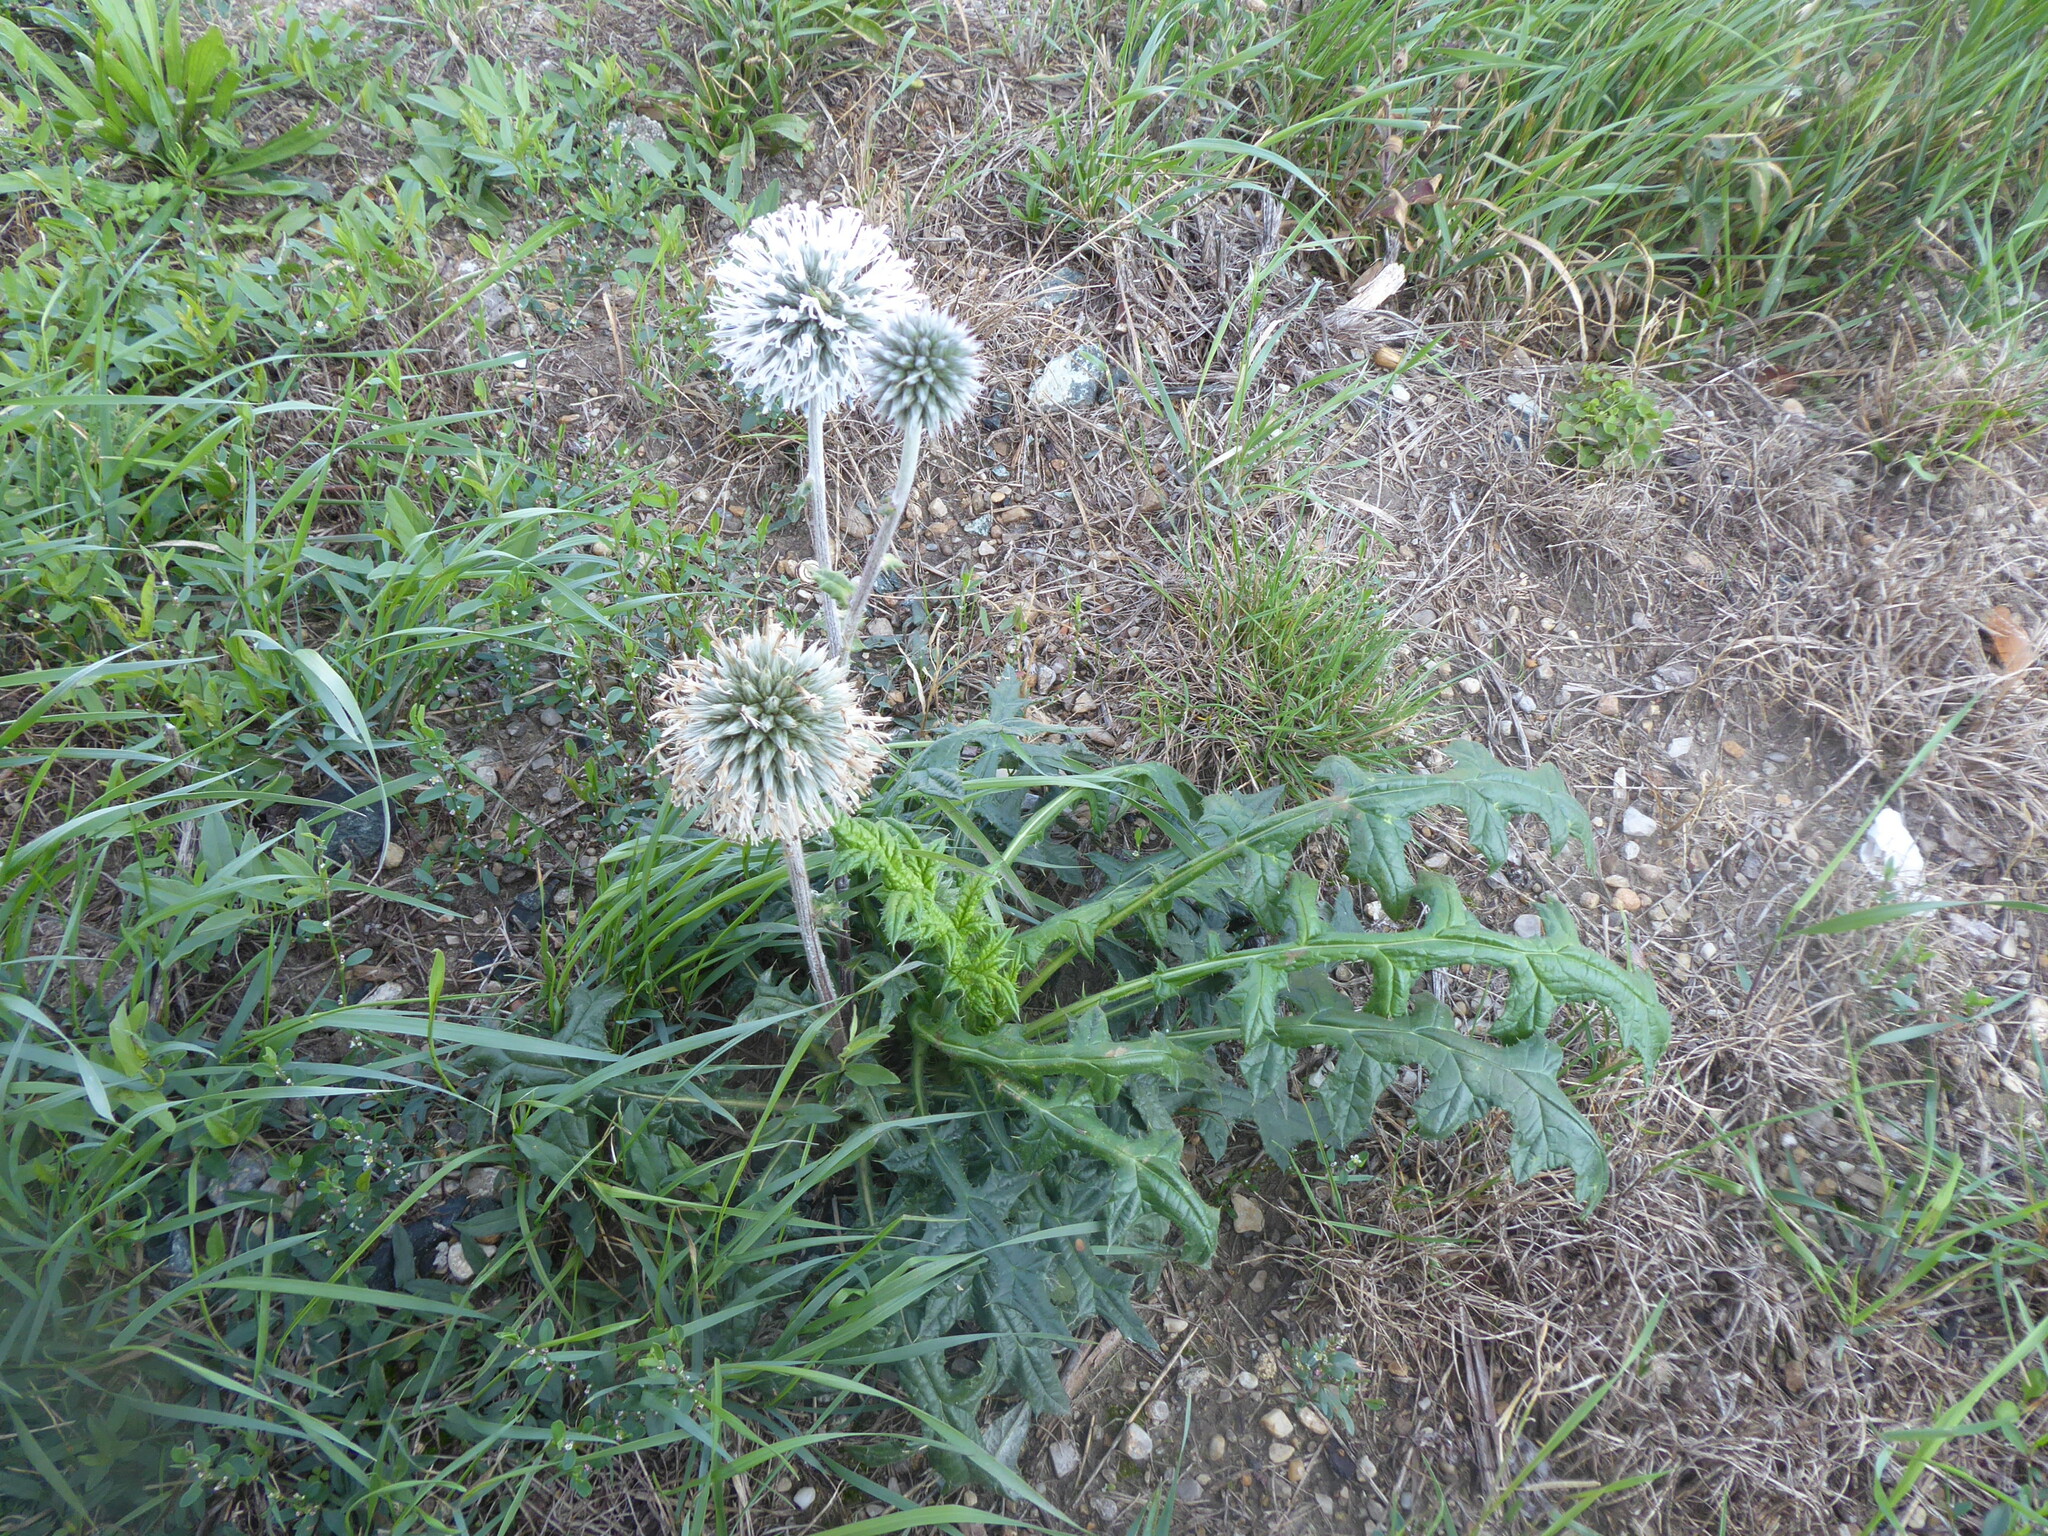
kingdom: Plantae
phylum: Tracheophyta
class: Magnoliopsida
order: Asterales
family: Asteraceae
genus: Echinops
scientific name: Echinops sphaerocephalus
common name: Glandular globe-thistle
